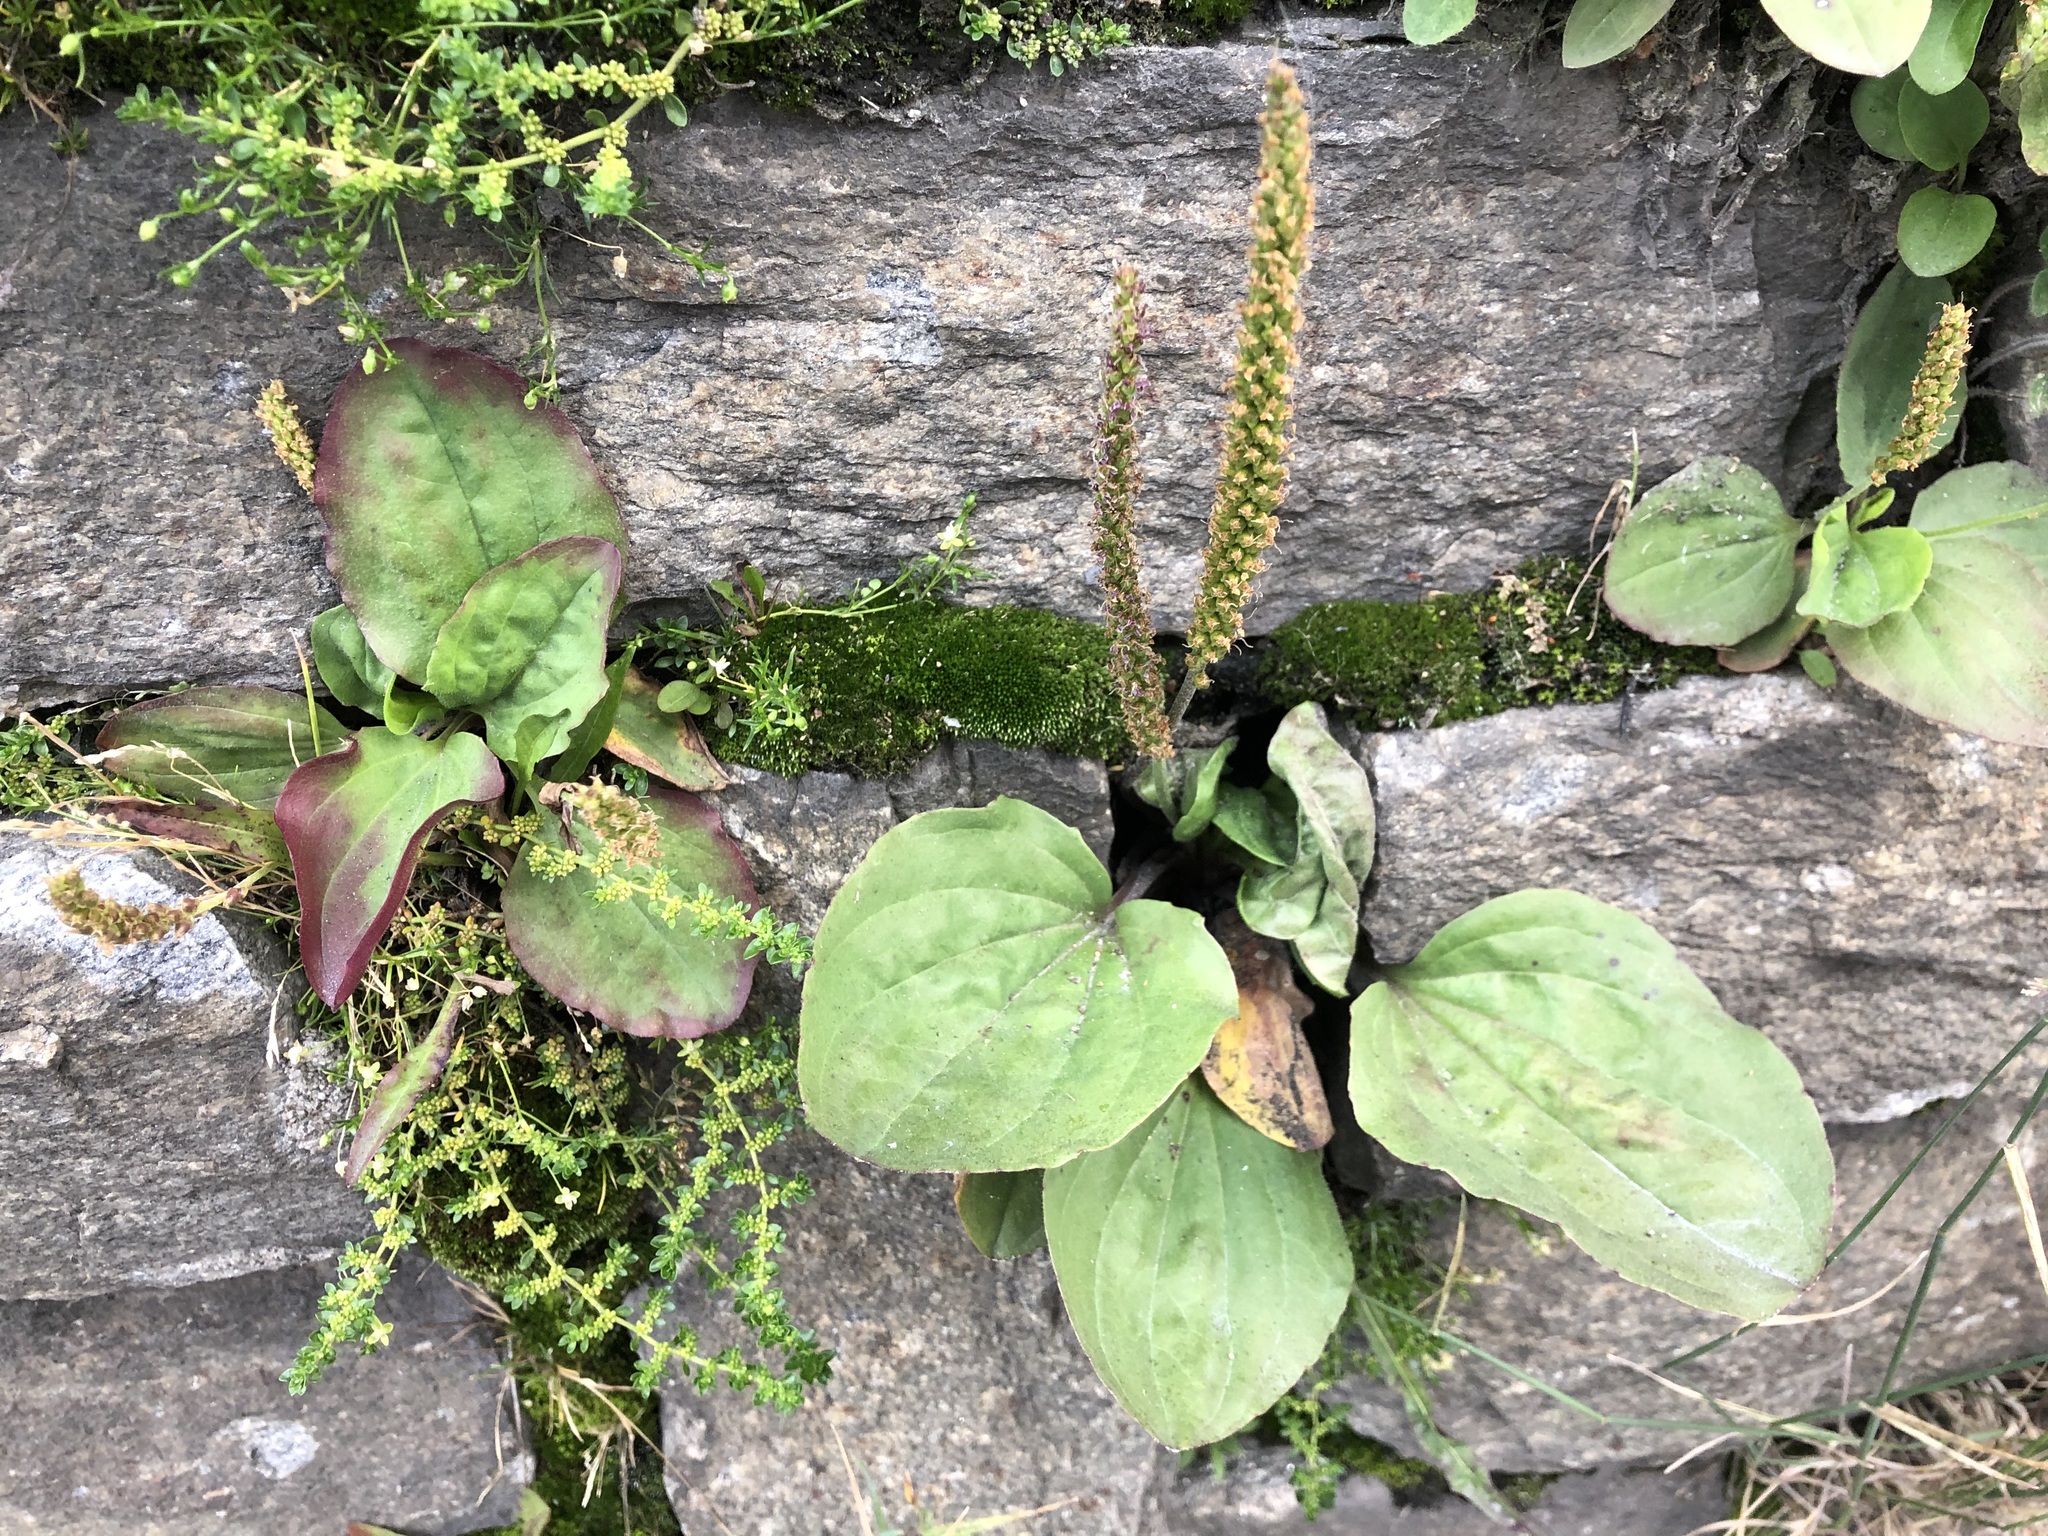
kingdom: Plantae
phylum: Tracheophyta
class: Magnoliopsida
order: Lamiales
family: Plantaginaceae
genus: Plantago
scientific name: Plantago major
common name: Common plantain
